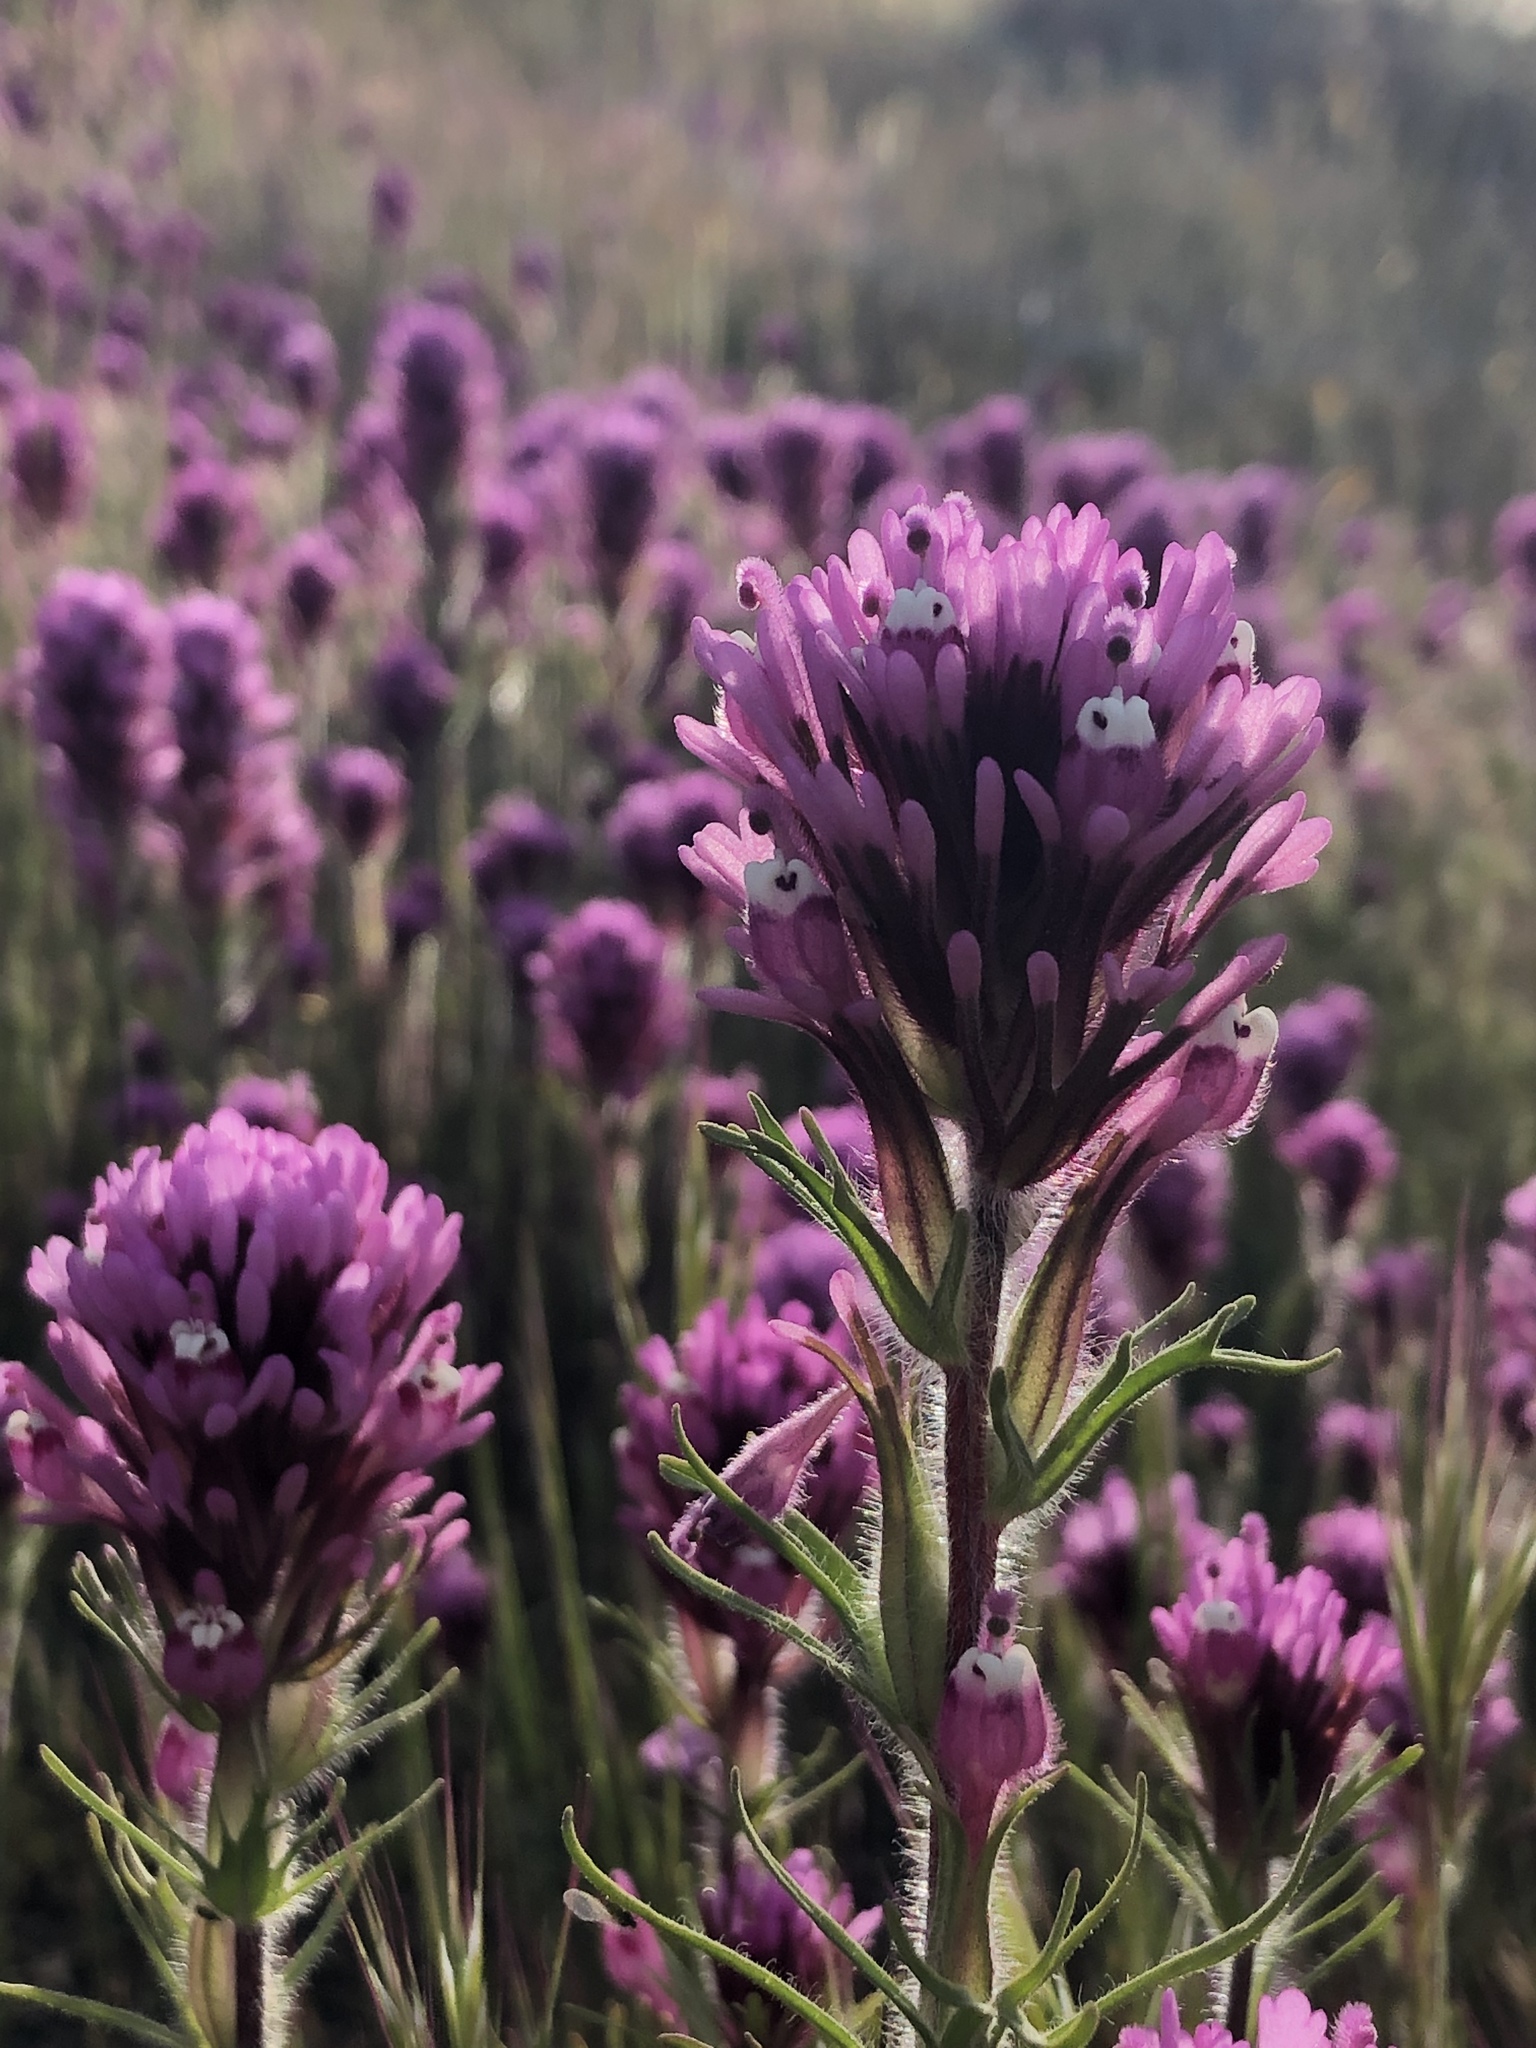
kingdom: Plantae
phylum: Tracheophyta
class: Magnoliopsida
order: Lamiales
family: Orobanchaceae
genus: Castilleja
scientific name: Castilleja exserta
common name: Purple owl-clover
